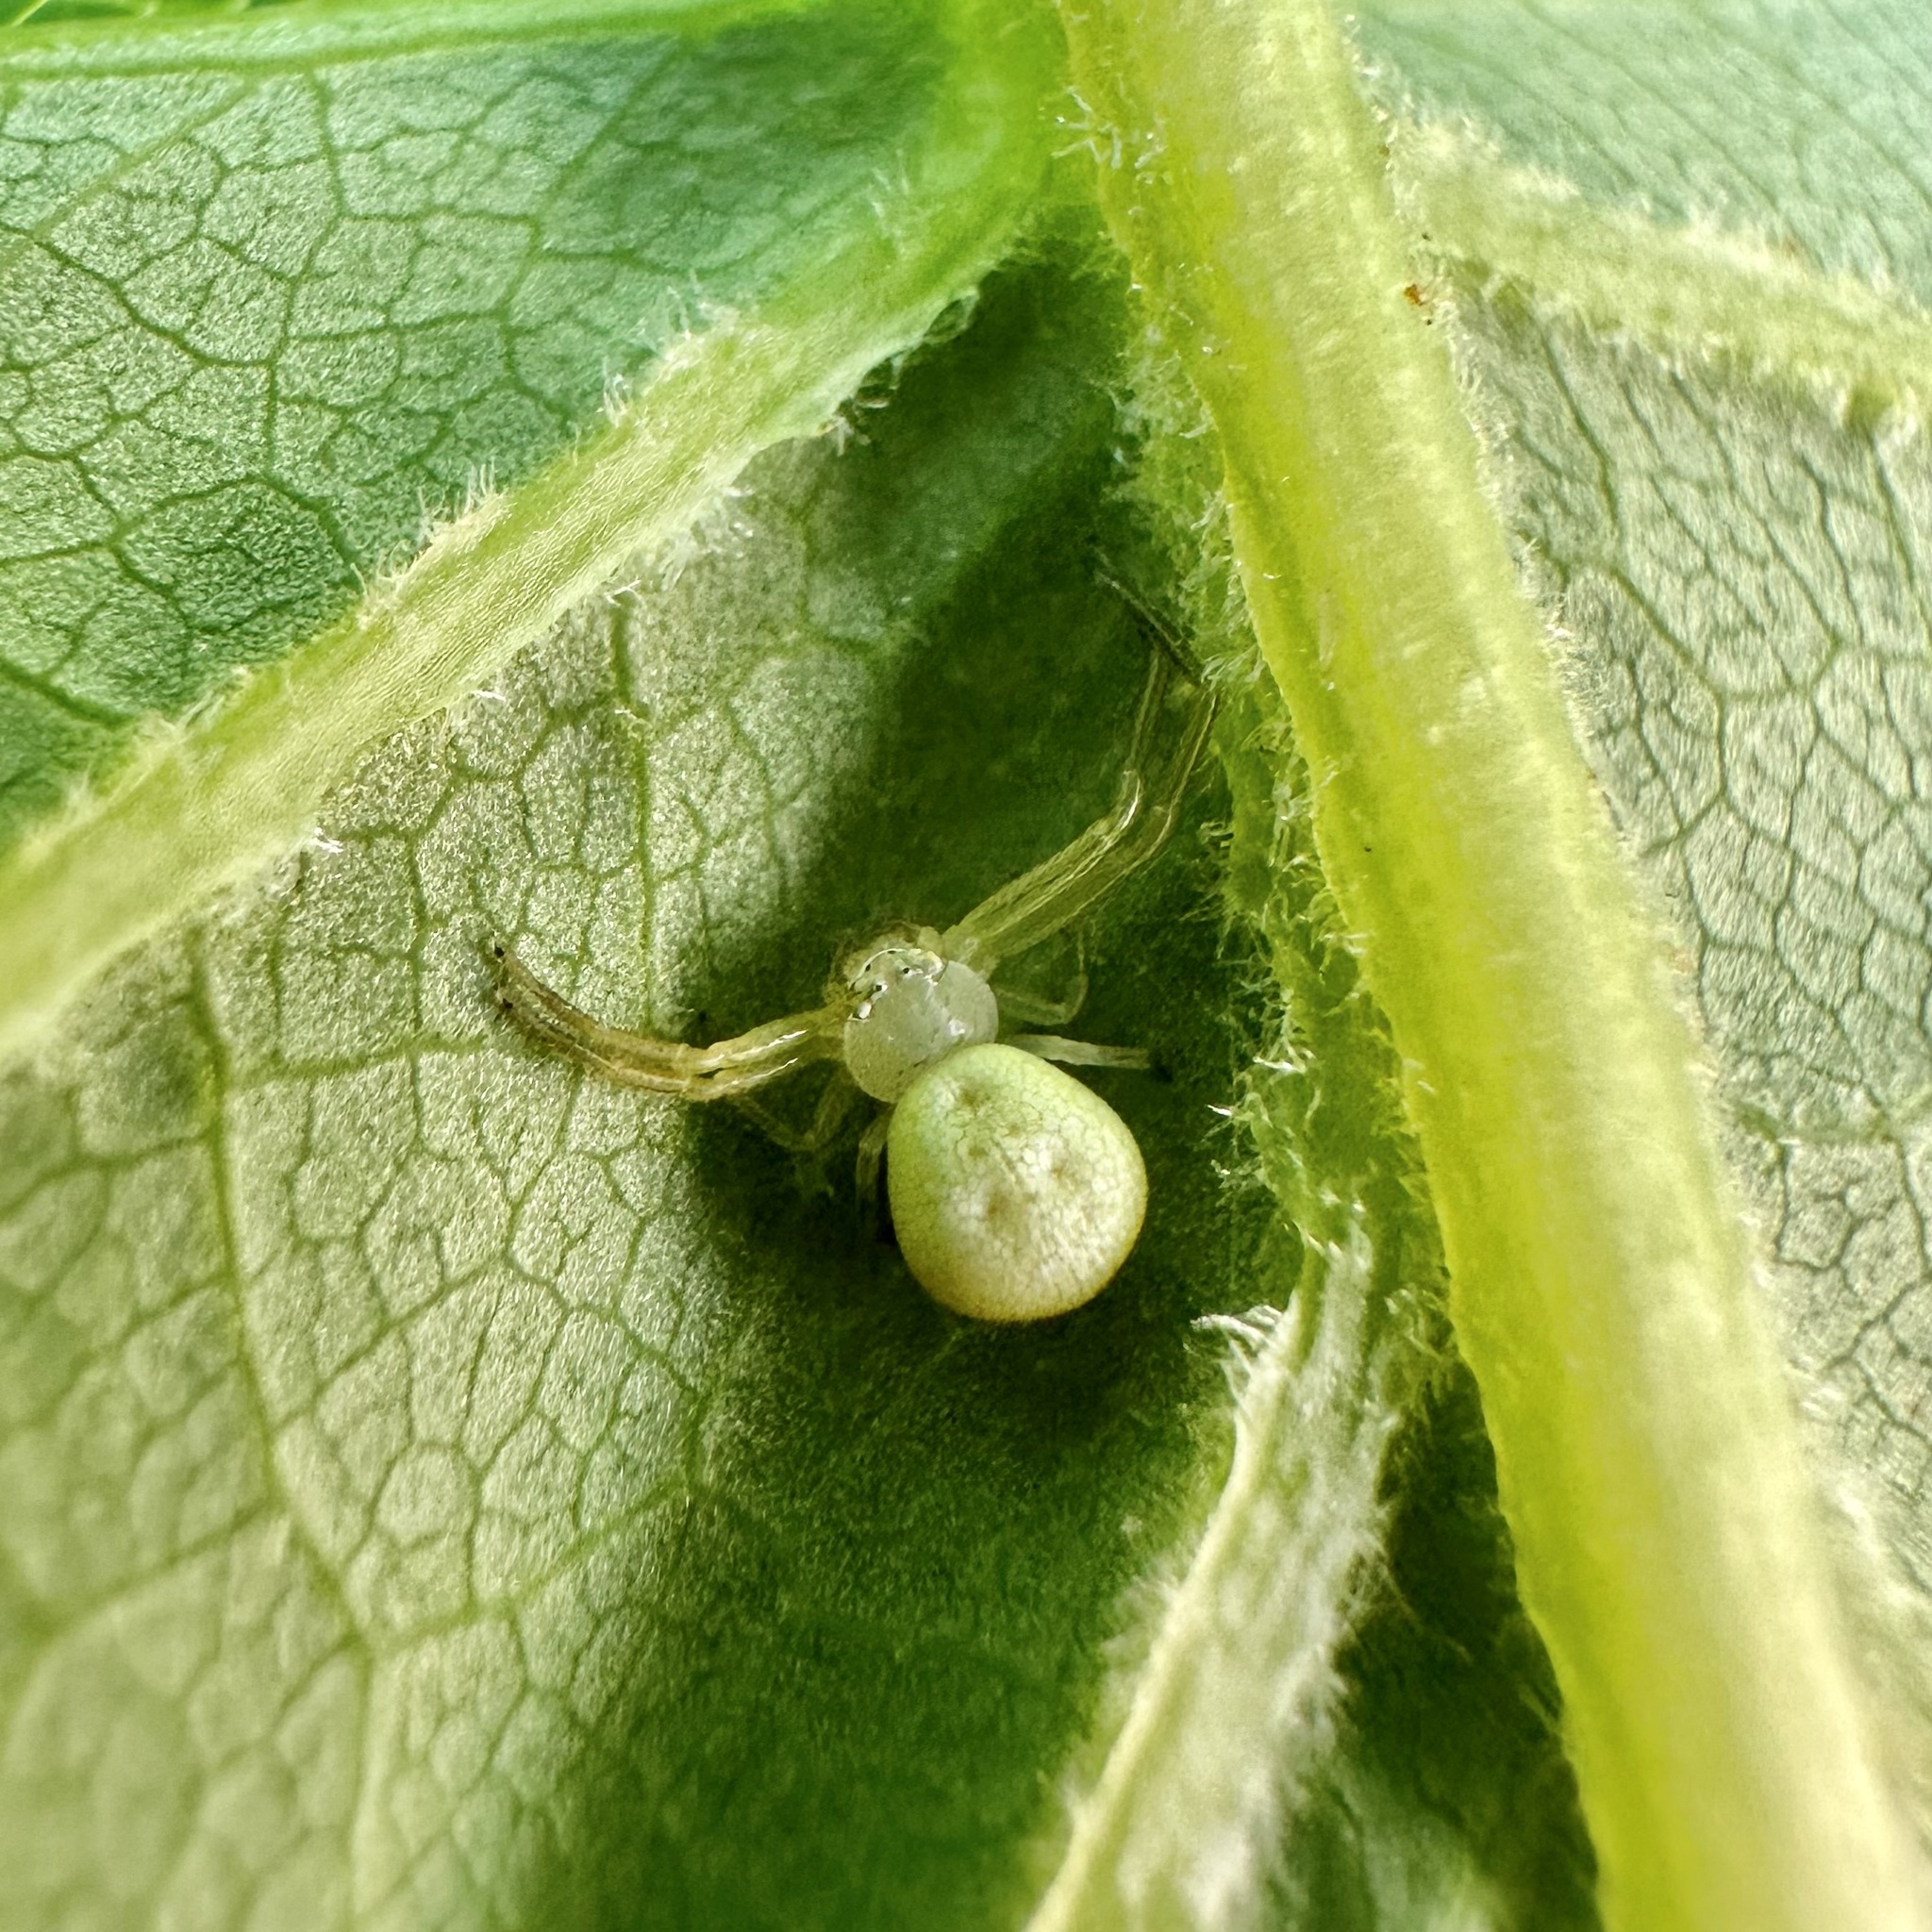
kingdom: Animalia
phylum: Arthropoda
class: Arachnida
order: Araneae
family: Thomisidae
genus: Misumessus
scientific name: Misumessus oblongus
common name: American green crab spider
